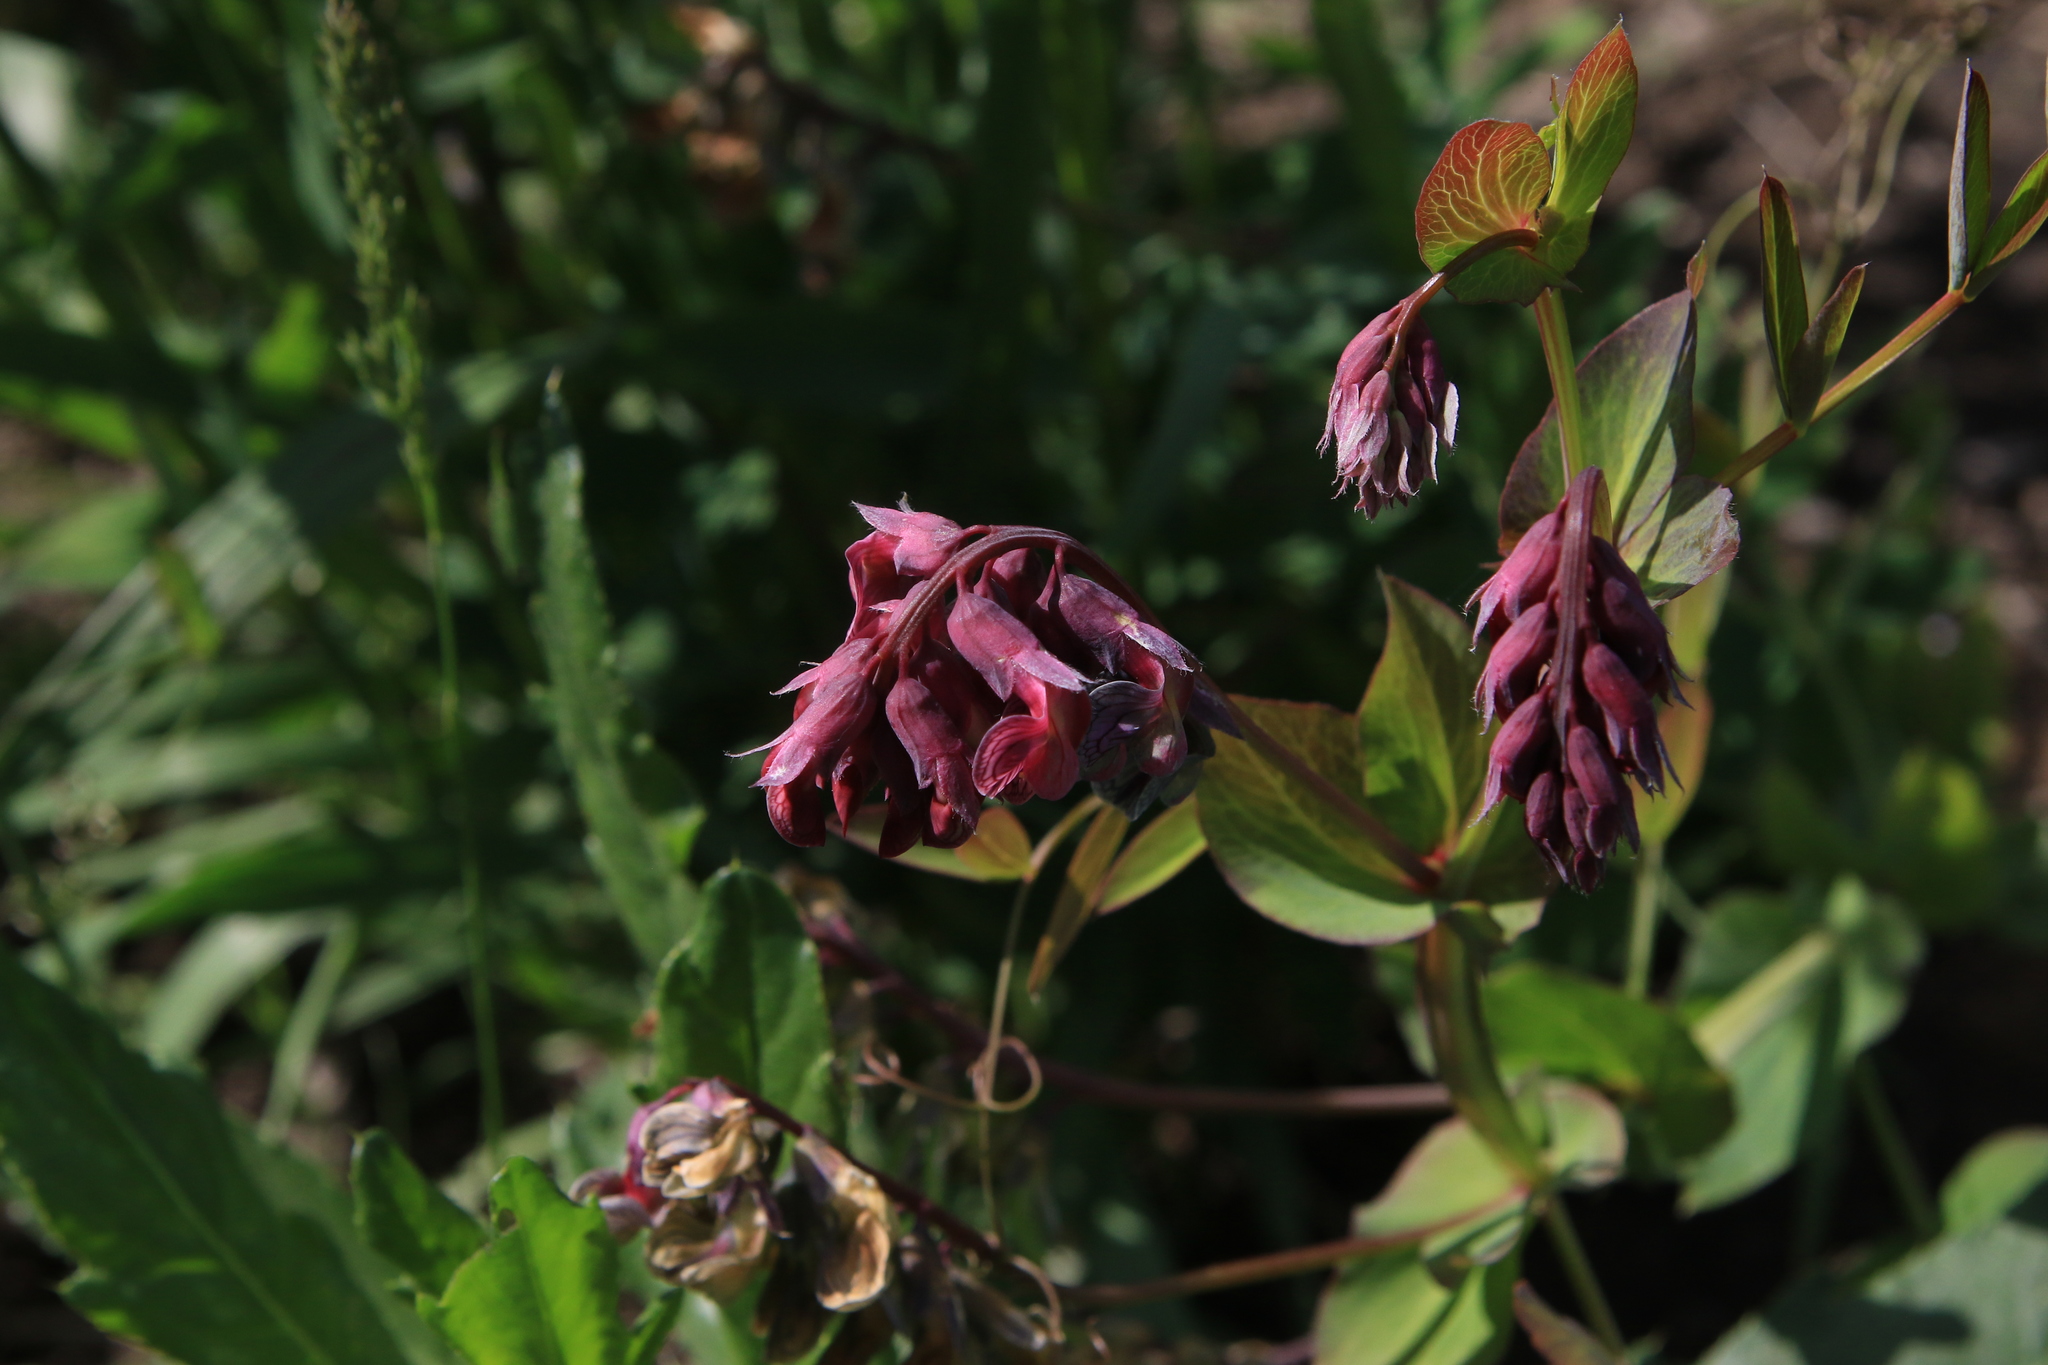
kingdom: Plantae
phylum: Tracheophyta
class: Magnoliopsida
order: Fabales
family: Fabaceae
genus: Lathyrus
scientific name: Lathyrus pisiformis
